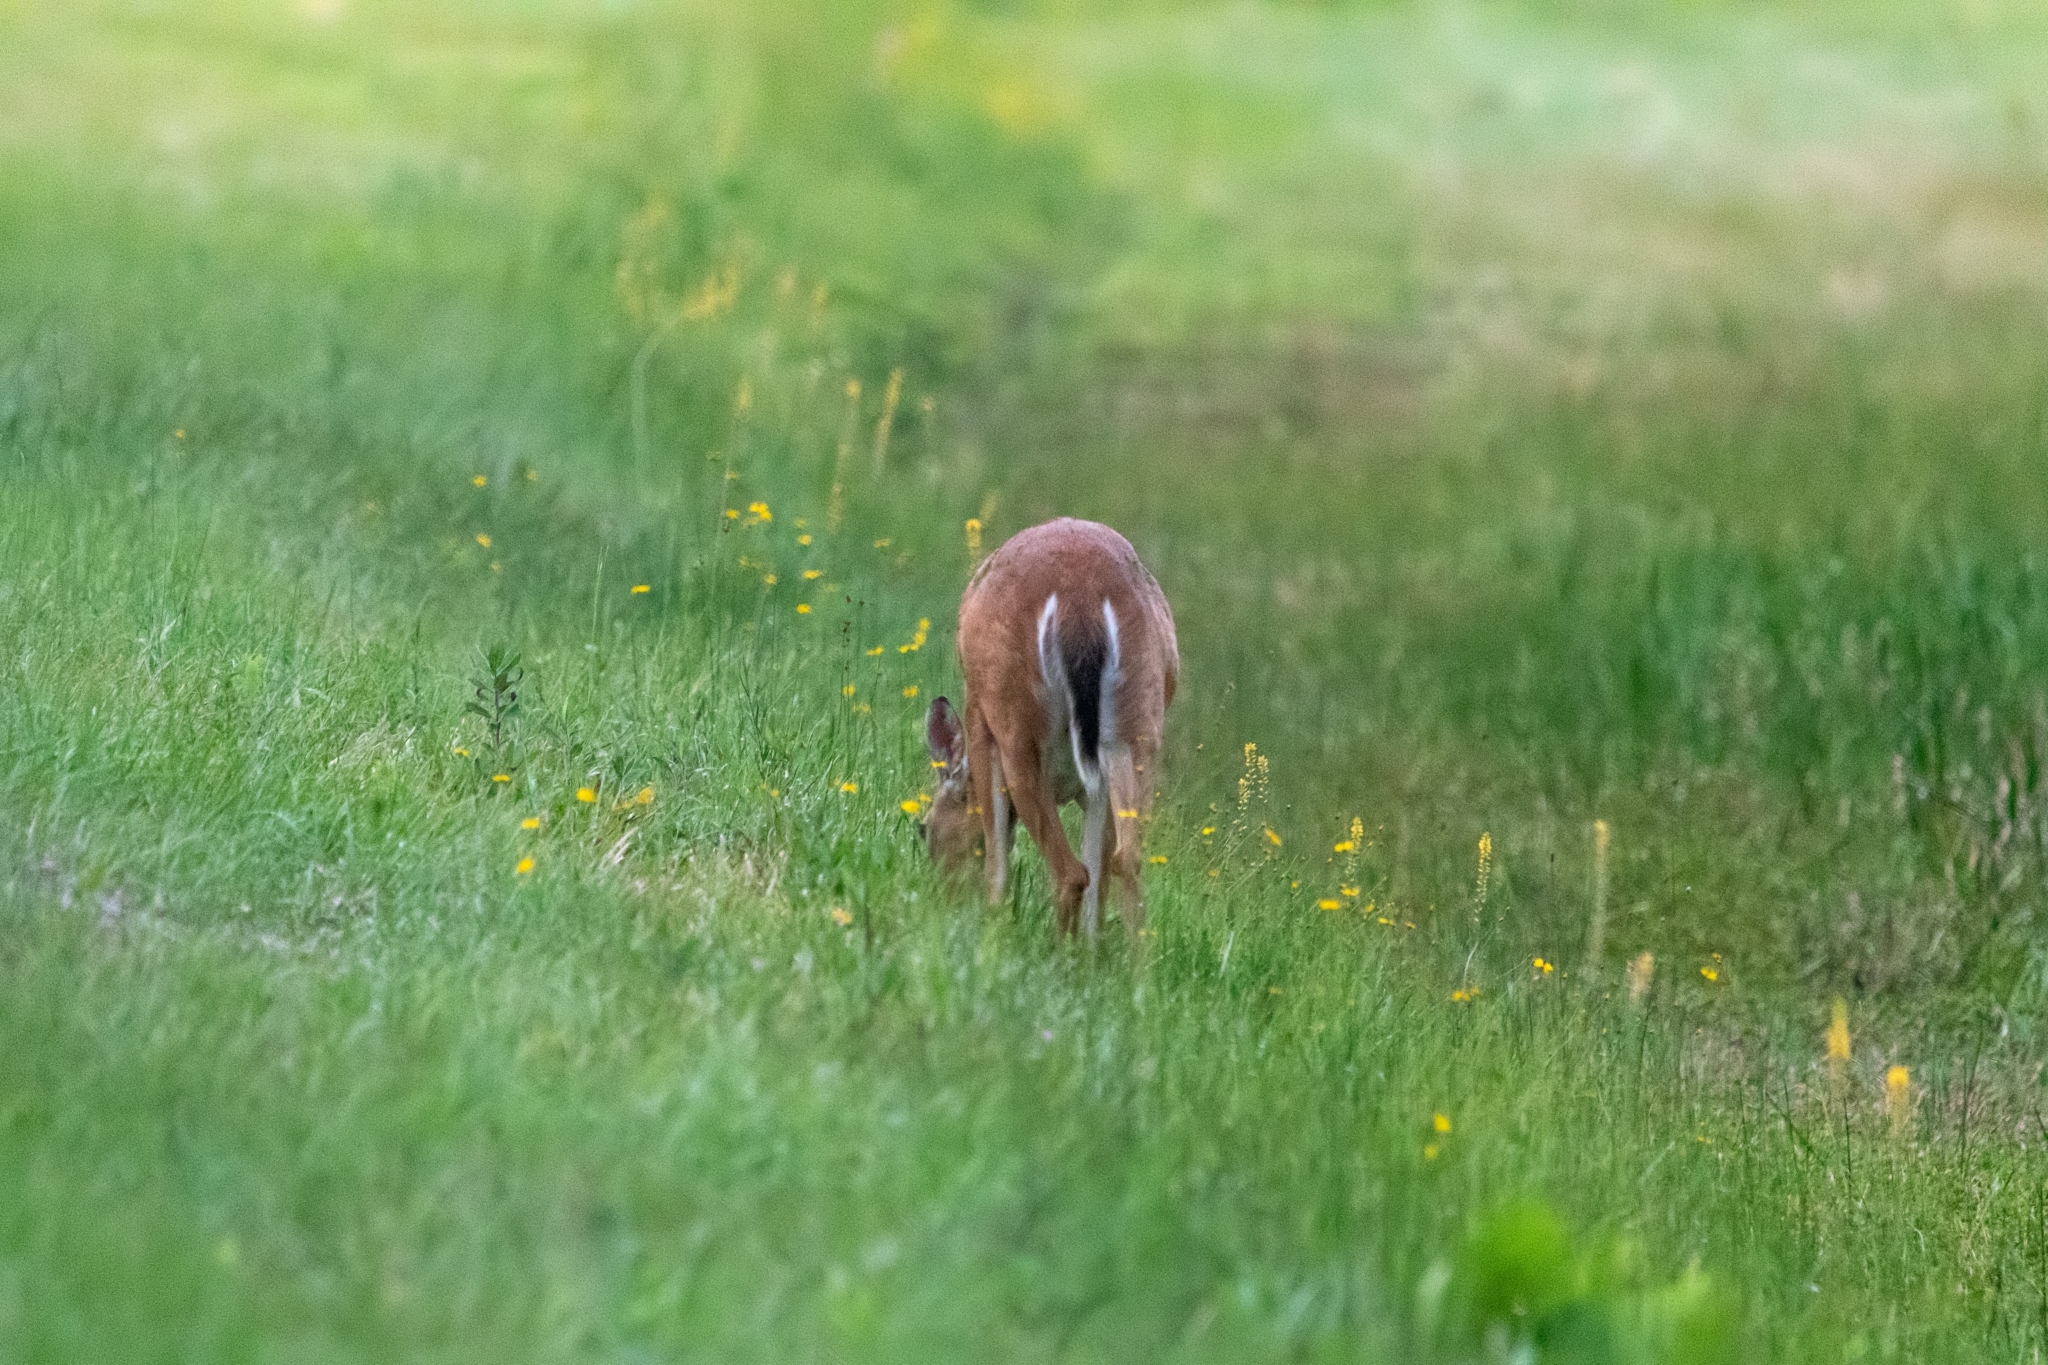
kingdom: Animalia
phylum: Chordata
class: Mammalia
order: Artiodactyla
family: Cervidae
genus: Odocoileus
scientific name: Odocoileus virginianus
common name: White-tailed deer
